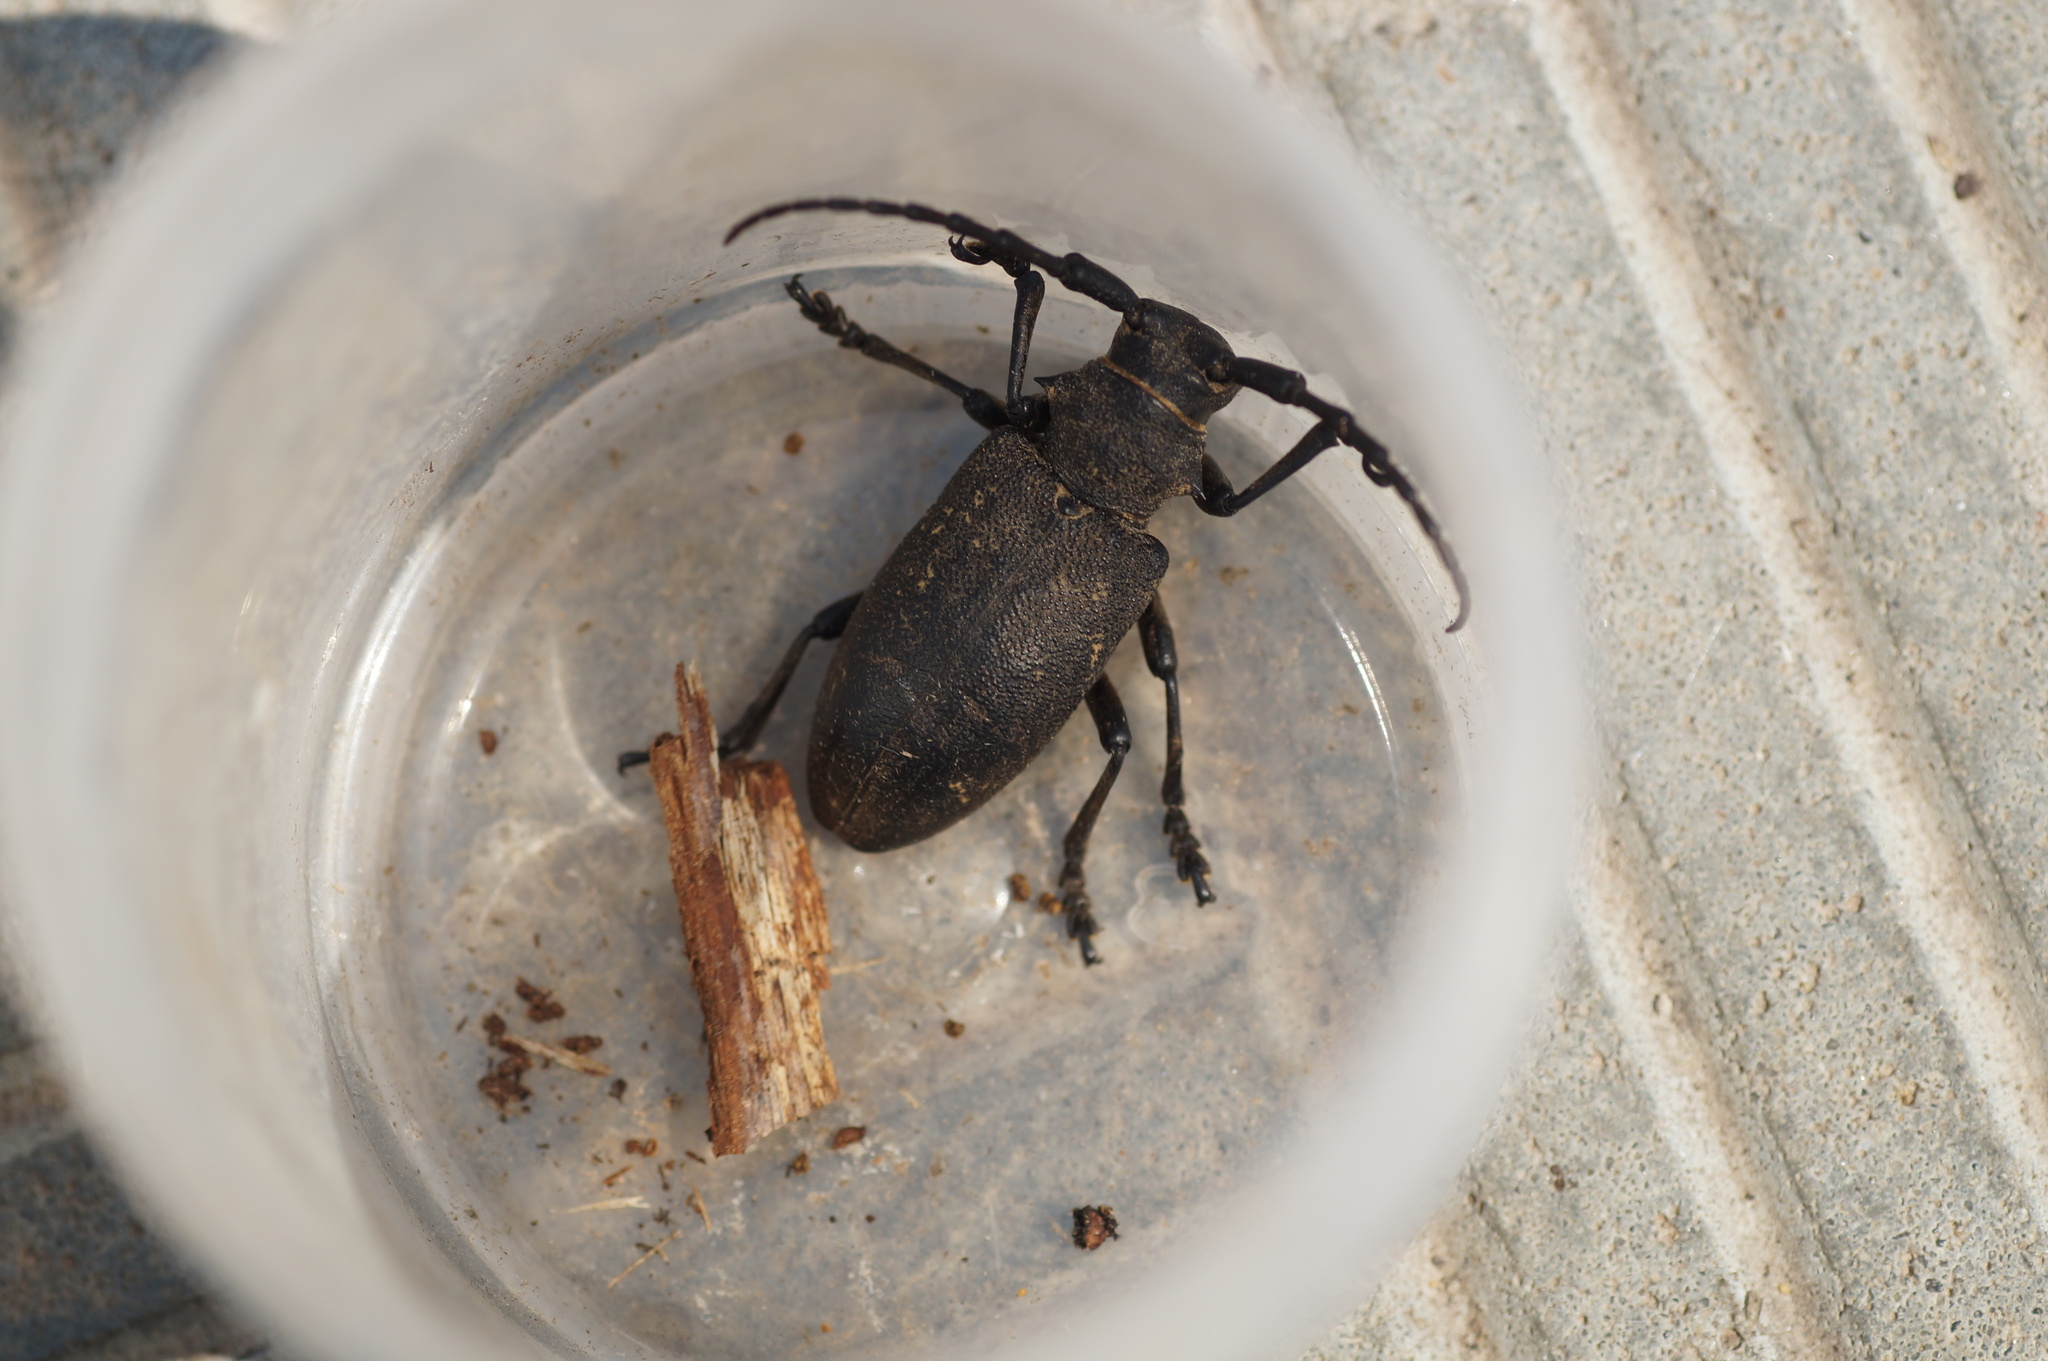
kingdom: Animalia
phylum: Arthropoda
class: Insecta
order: Coleoptera
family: Cerambycidae
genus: Lamia
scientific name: Lamia textor
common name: Weaver beetle
